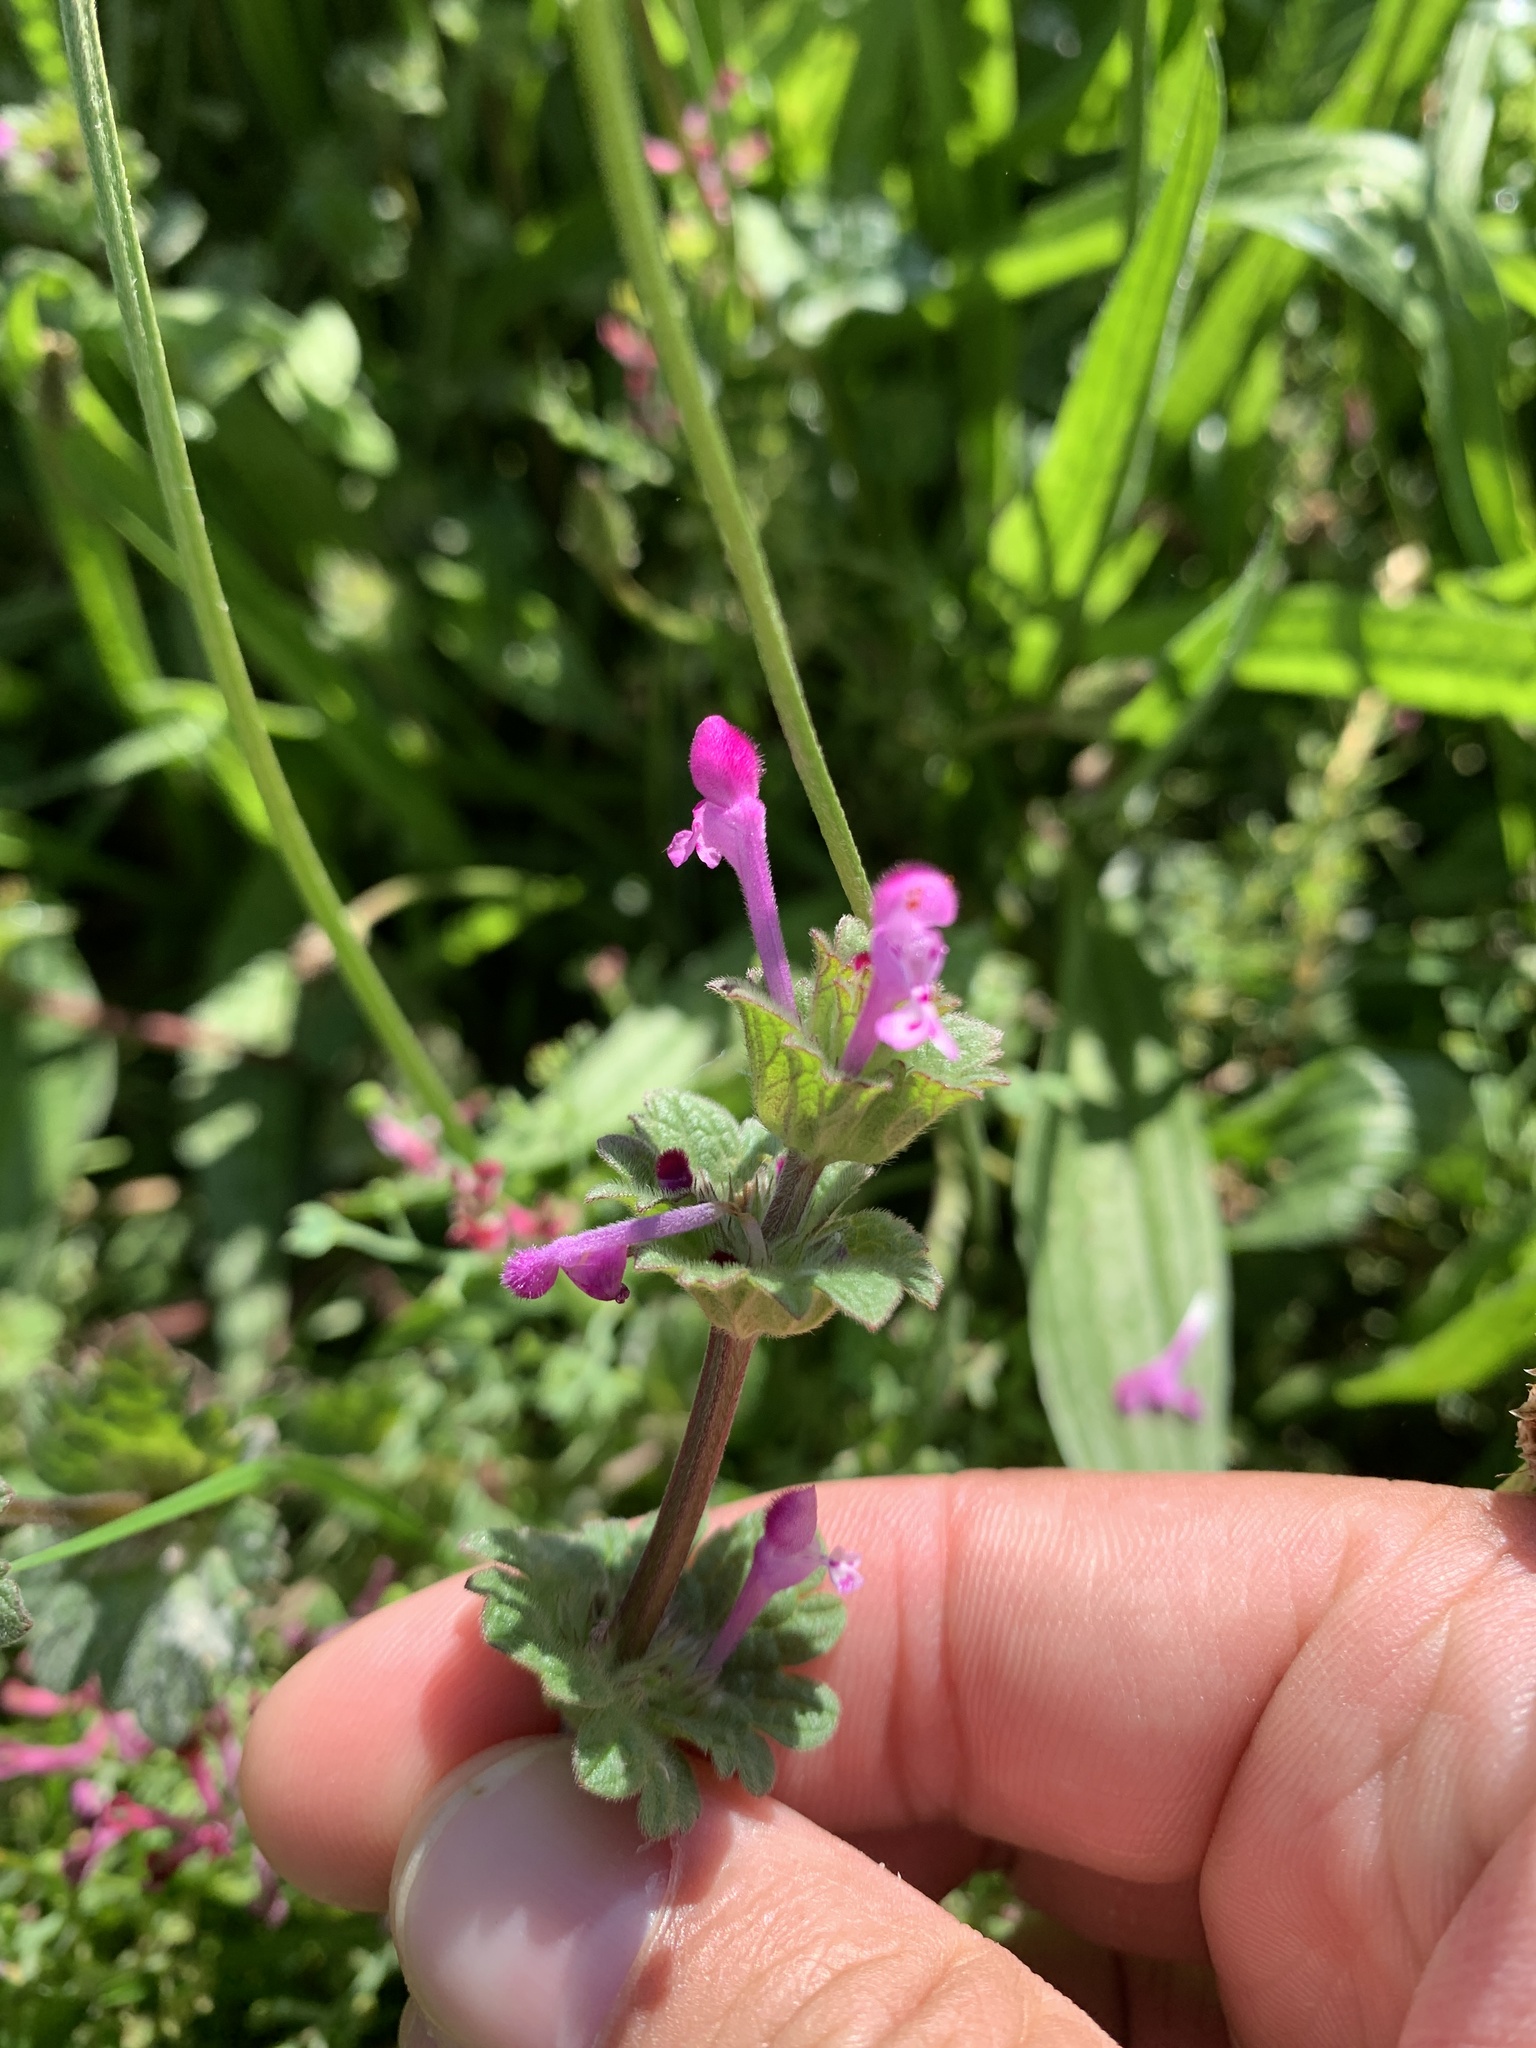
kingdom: Plantae
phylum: Tracheophyta
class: Magnoliopsida
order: Lamiales
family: Lamiaceae
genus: Lamium
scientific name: Lamium amplexicaule
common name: Henbit dead-nettle
